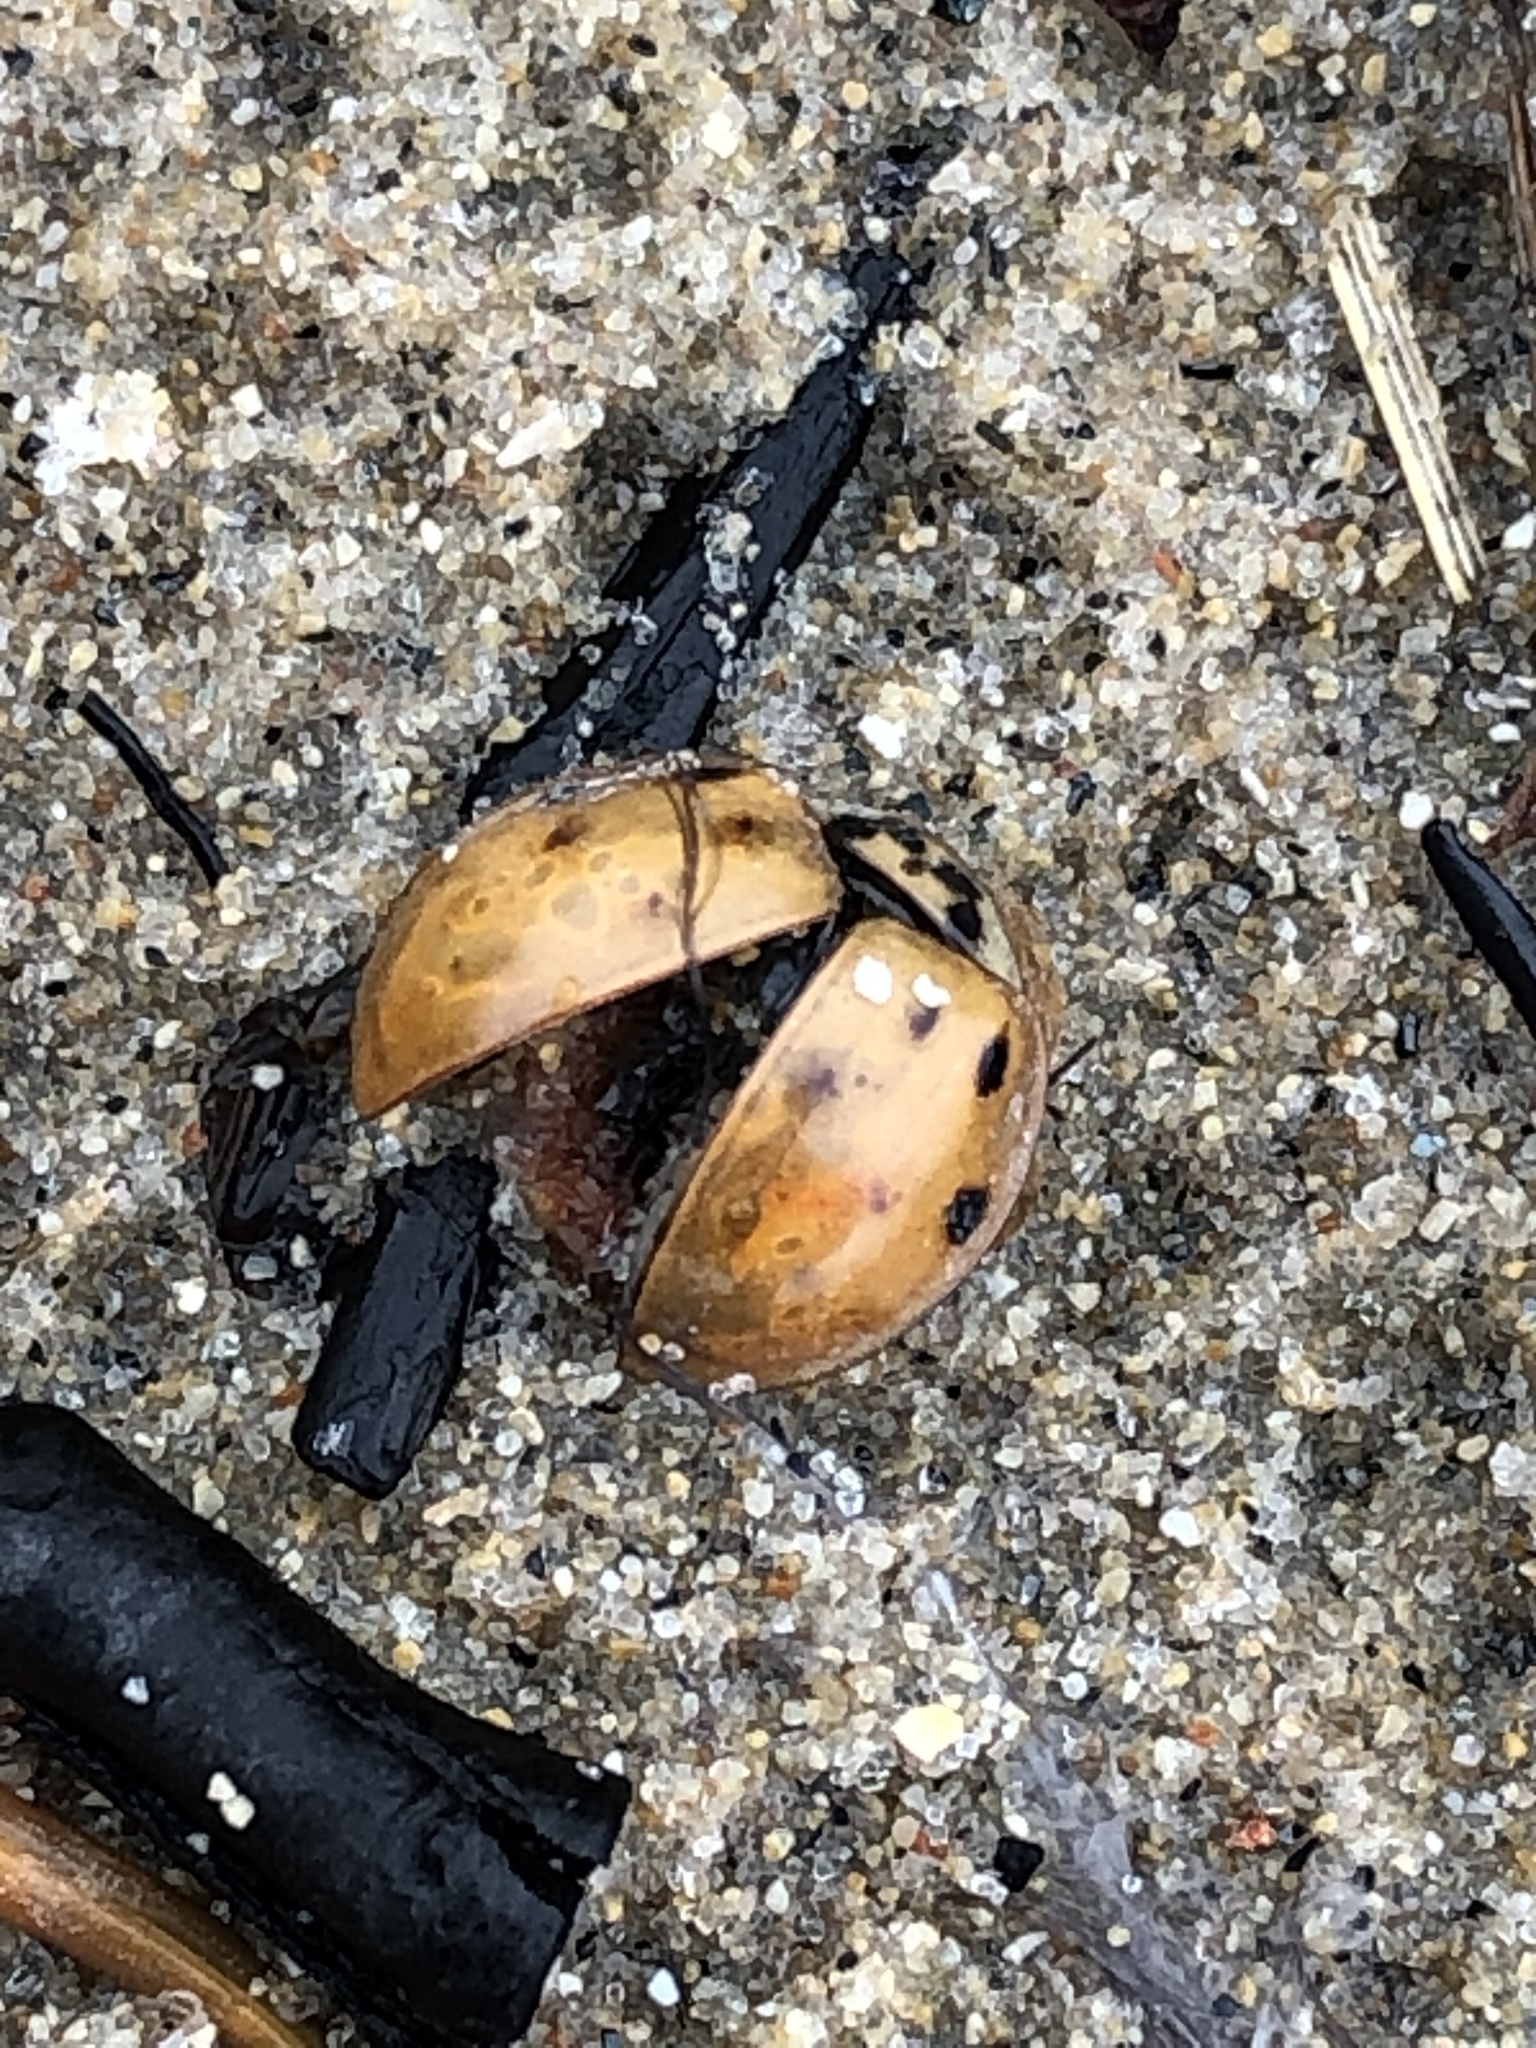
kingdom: Animalia
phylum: Arthropoda
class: Insecta
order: Coleoptera
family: Coccinellidae
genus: Harmonia
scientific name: Harmonia axyridis
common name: Harlequin ladybird
